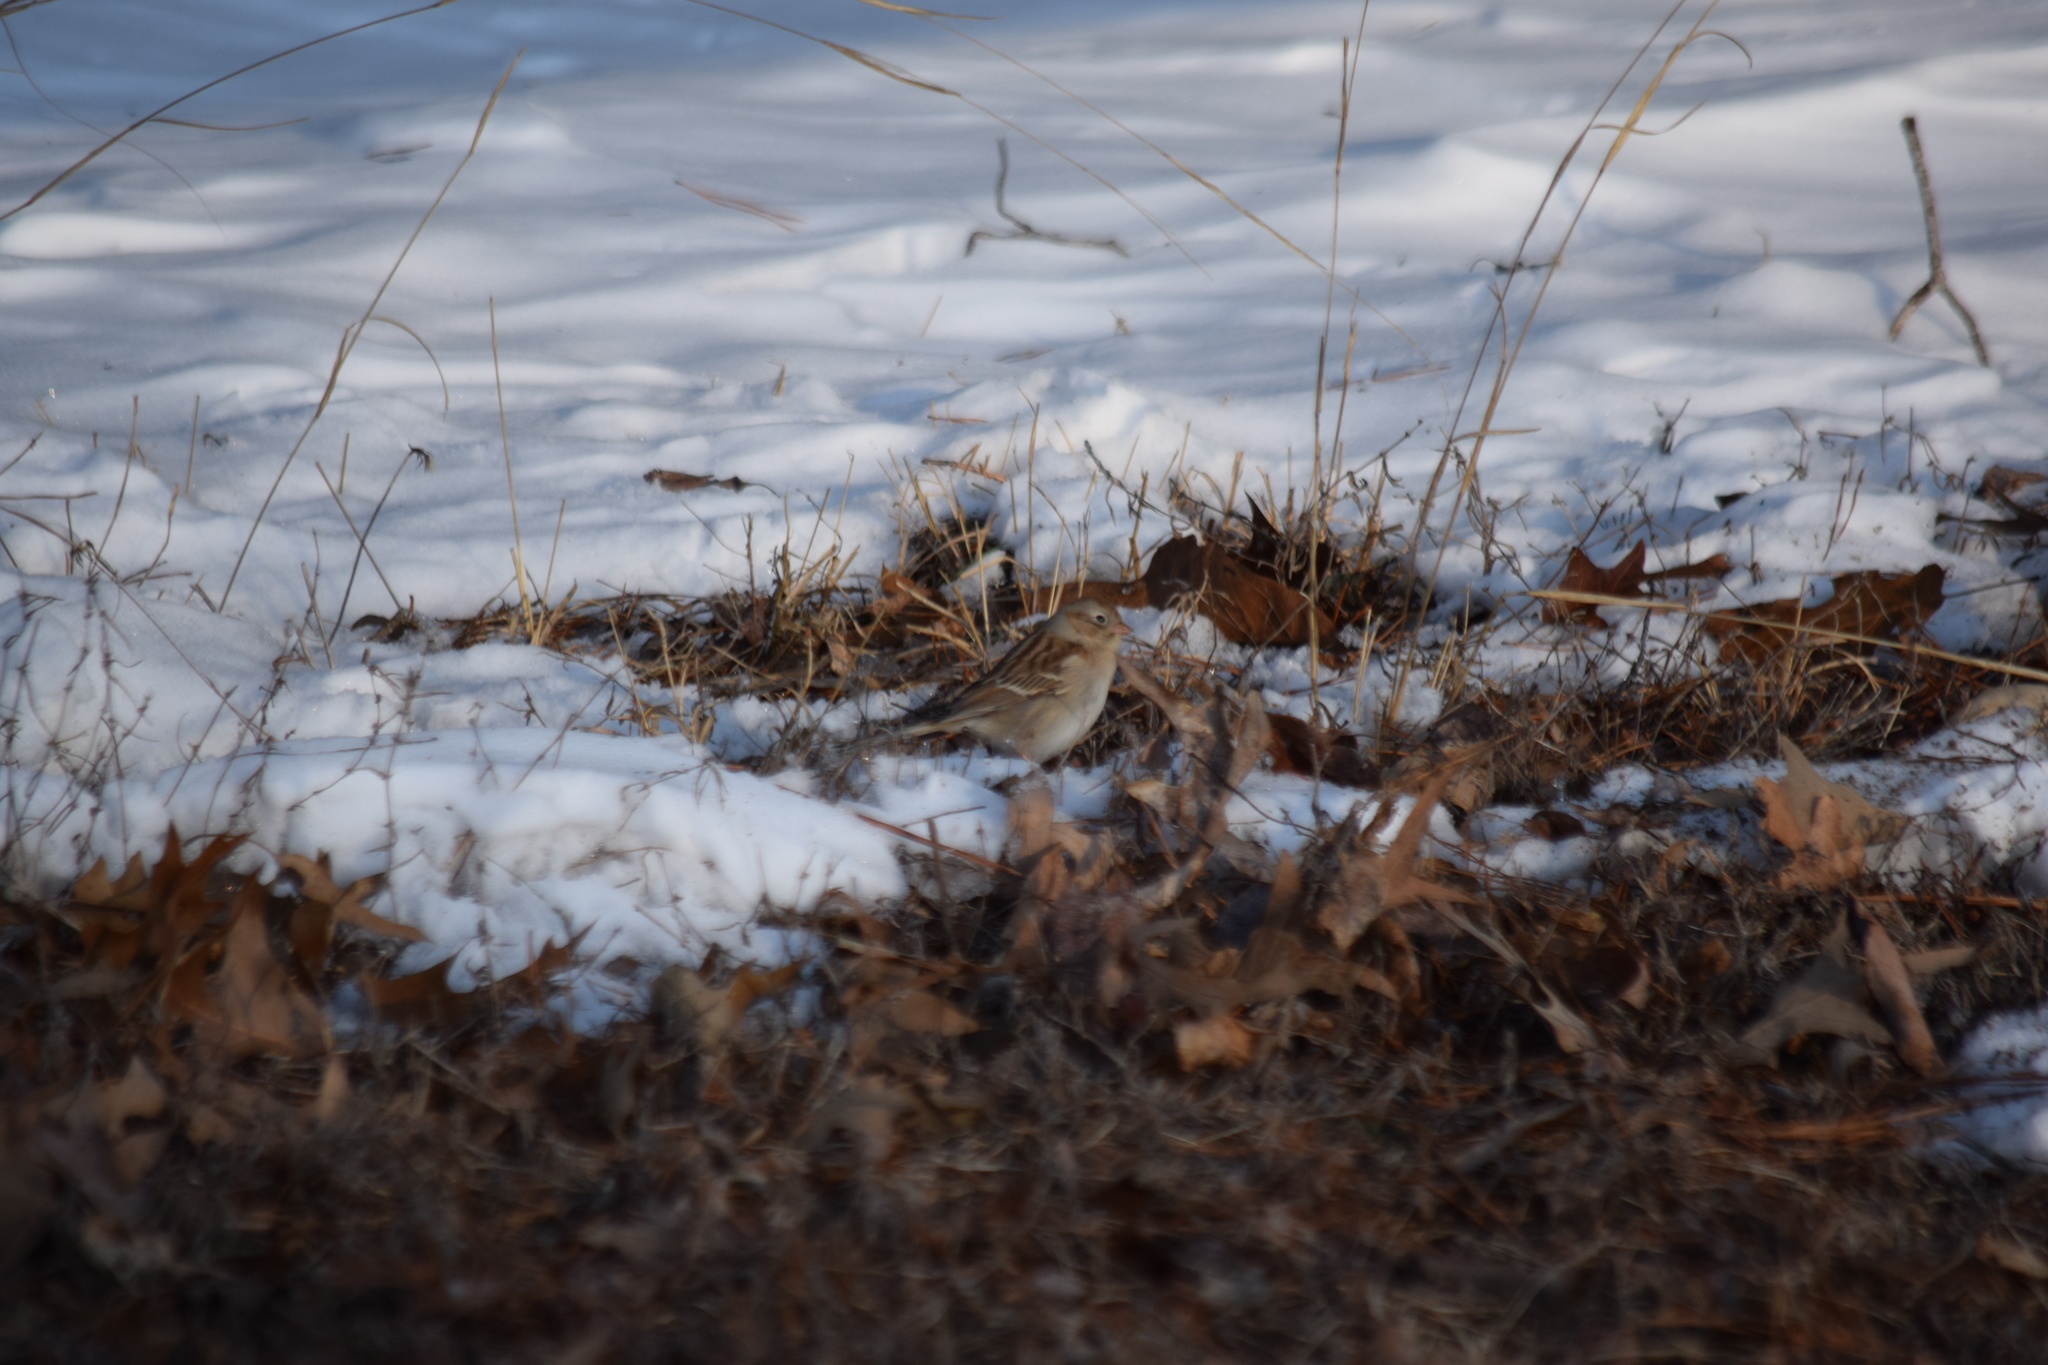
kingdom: Animalia
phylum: Chordata
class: Aves
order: Passeriformes
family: Passerellidae
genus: Spizella
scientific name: Spizella pusilla
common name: Field sparrow
